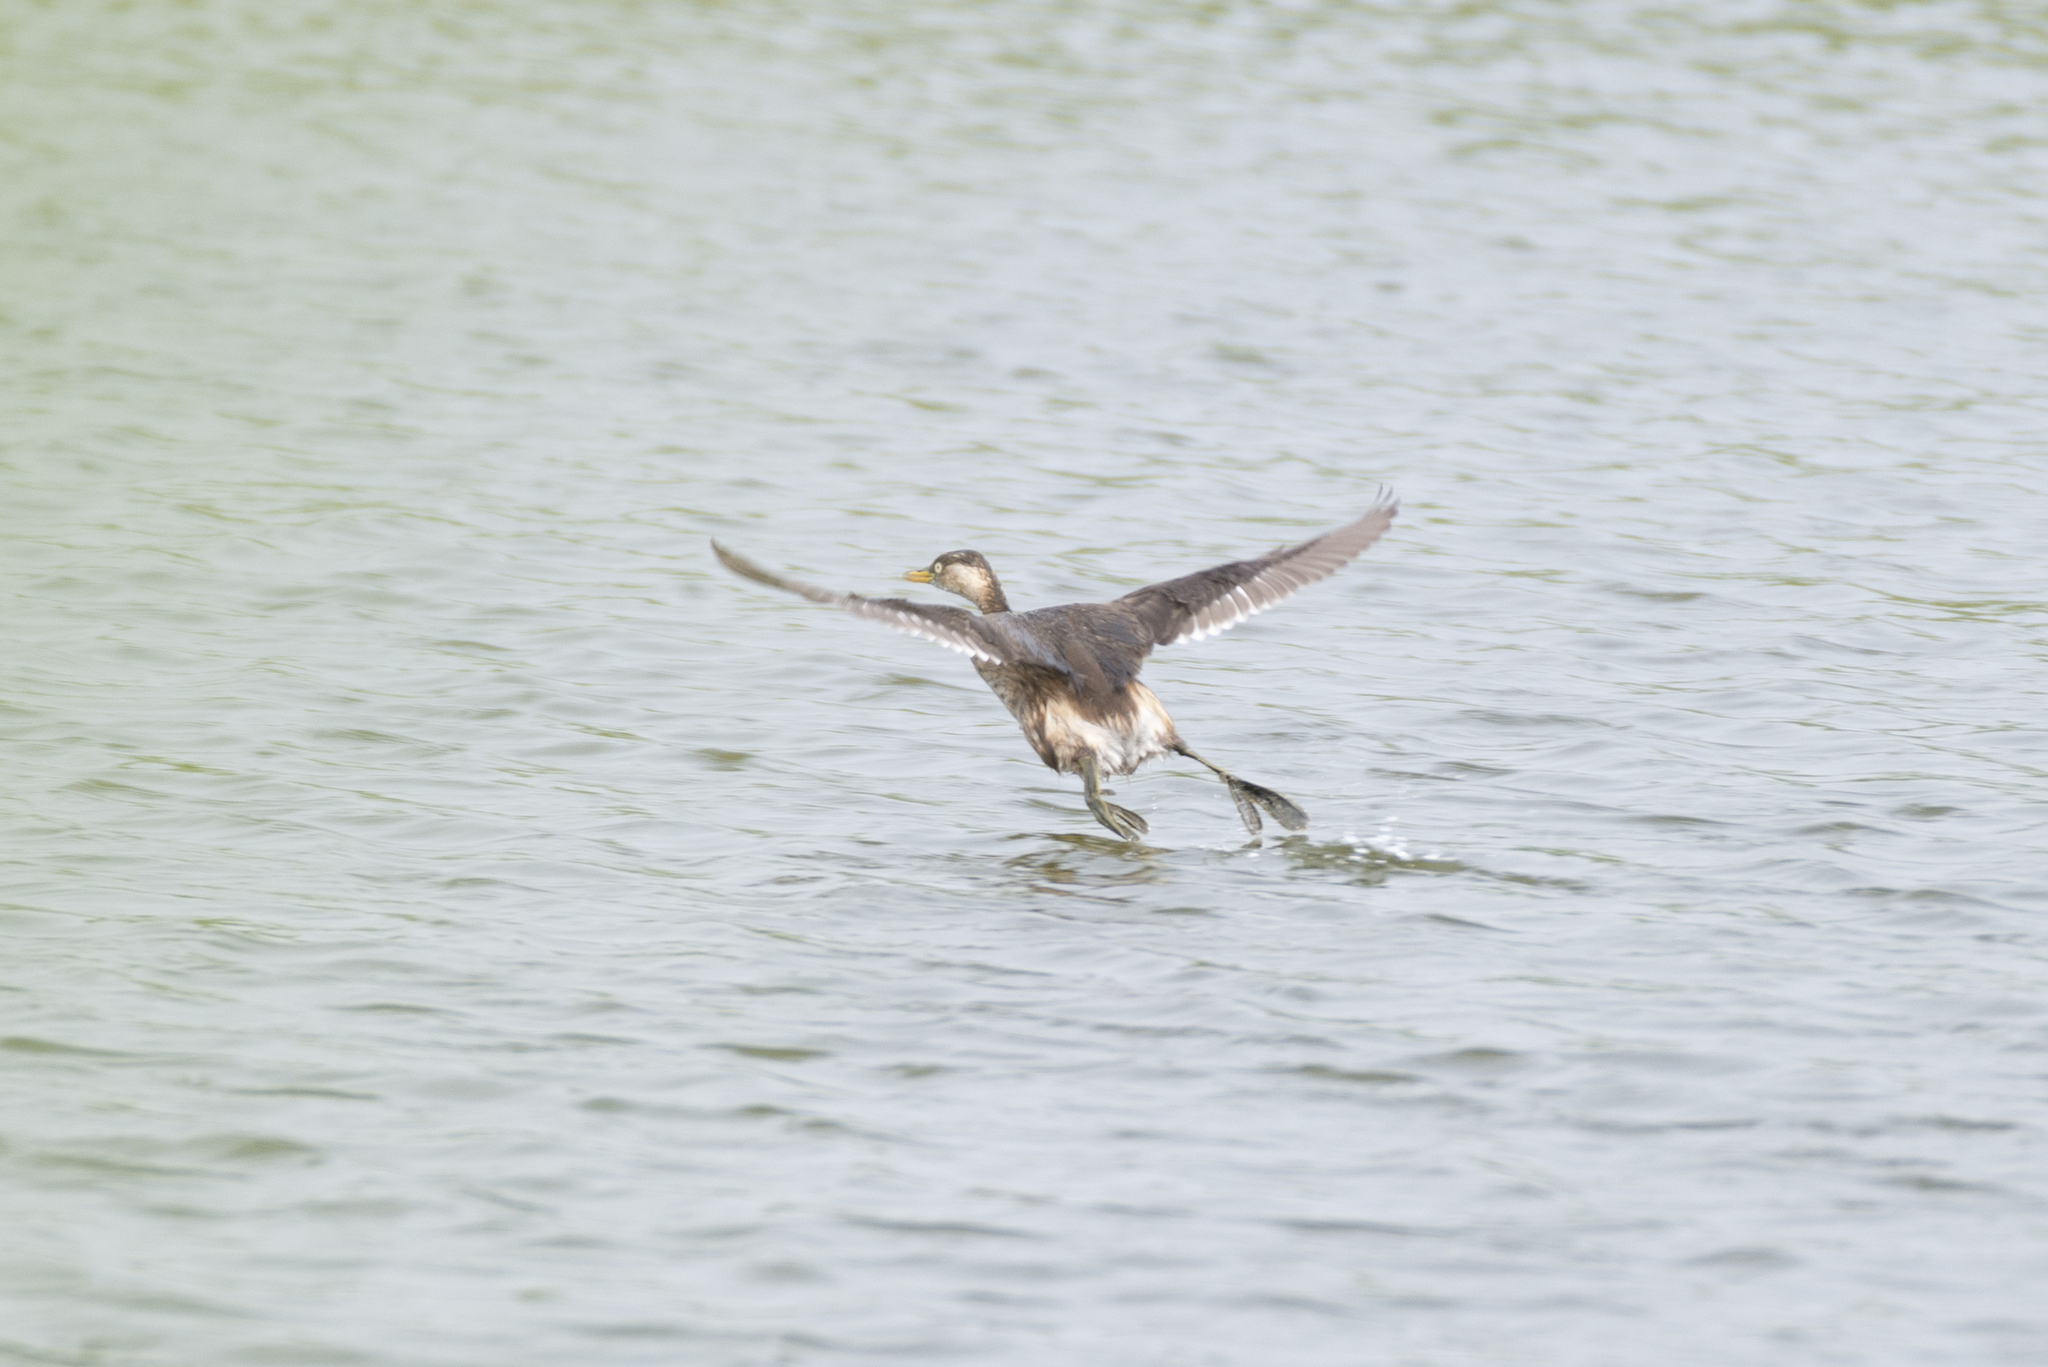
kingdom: Animalia
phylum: Chordata
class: Aves
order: Podicipediformes
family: Podicipedidae
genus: Tachybaptus
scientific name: Tachybaptus ruficollis
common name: Little grebe
